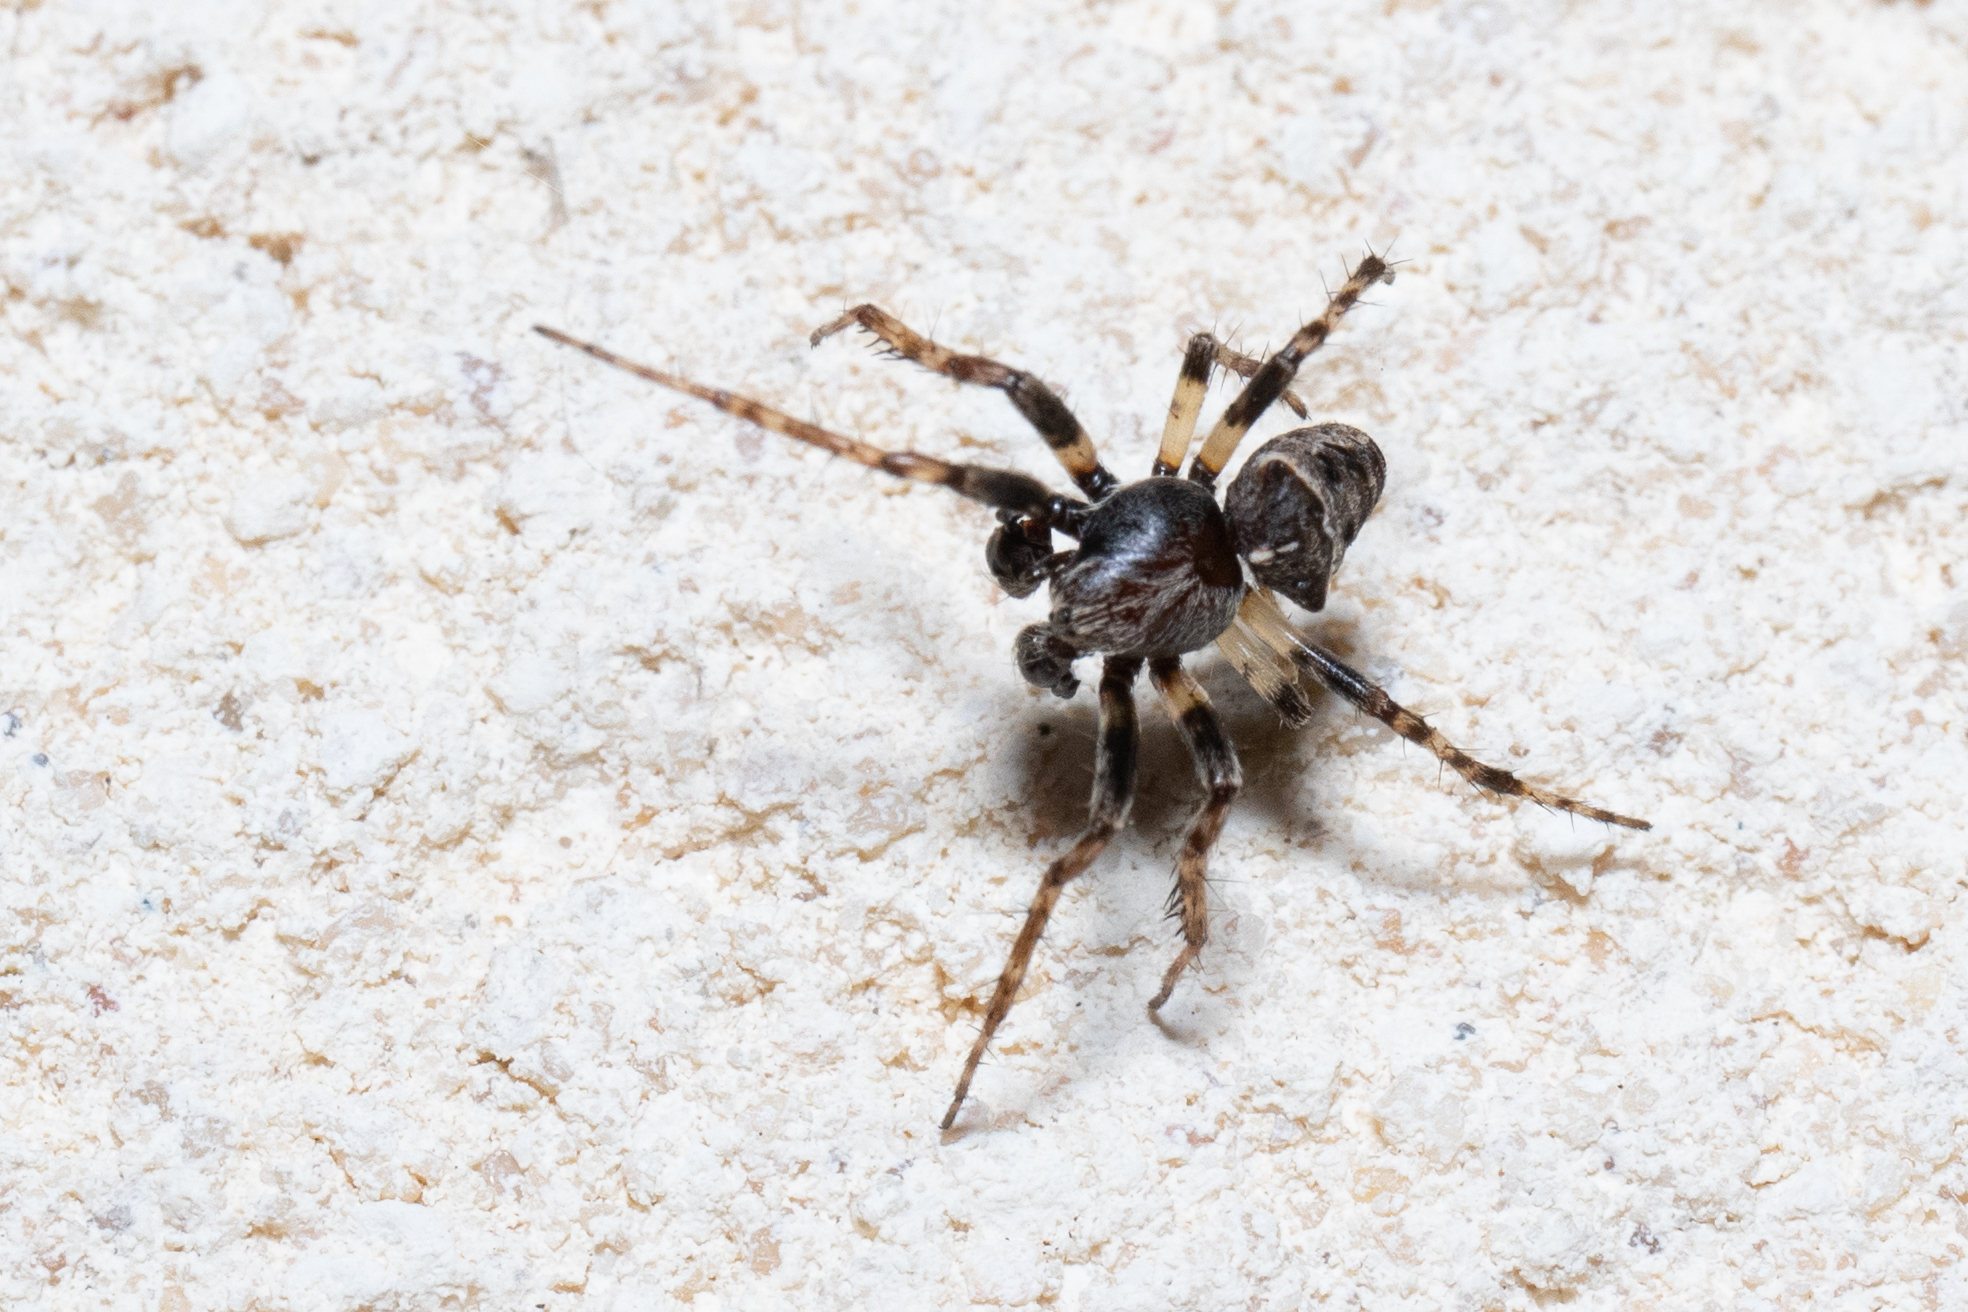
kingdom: Animalia
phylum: Arthropoda
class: Arachnida
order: Araneae
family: Araneidae
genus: Gibbaranea
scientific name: Gibbaranea bituberculata
